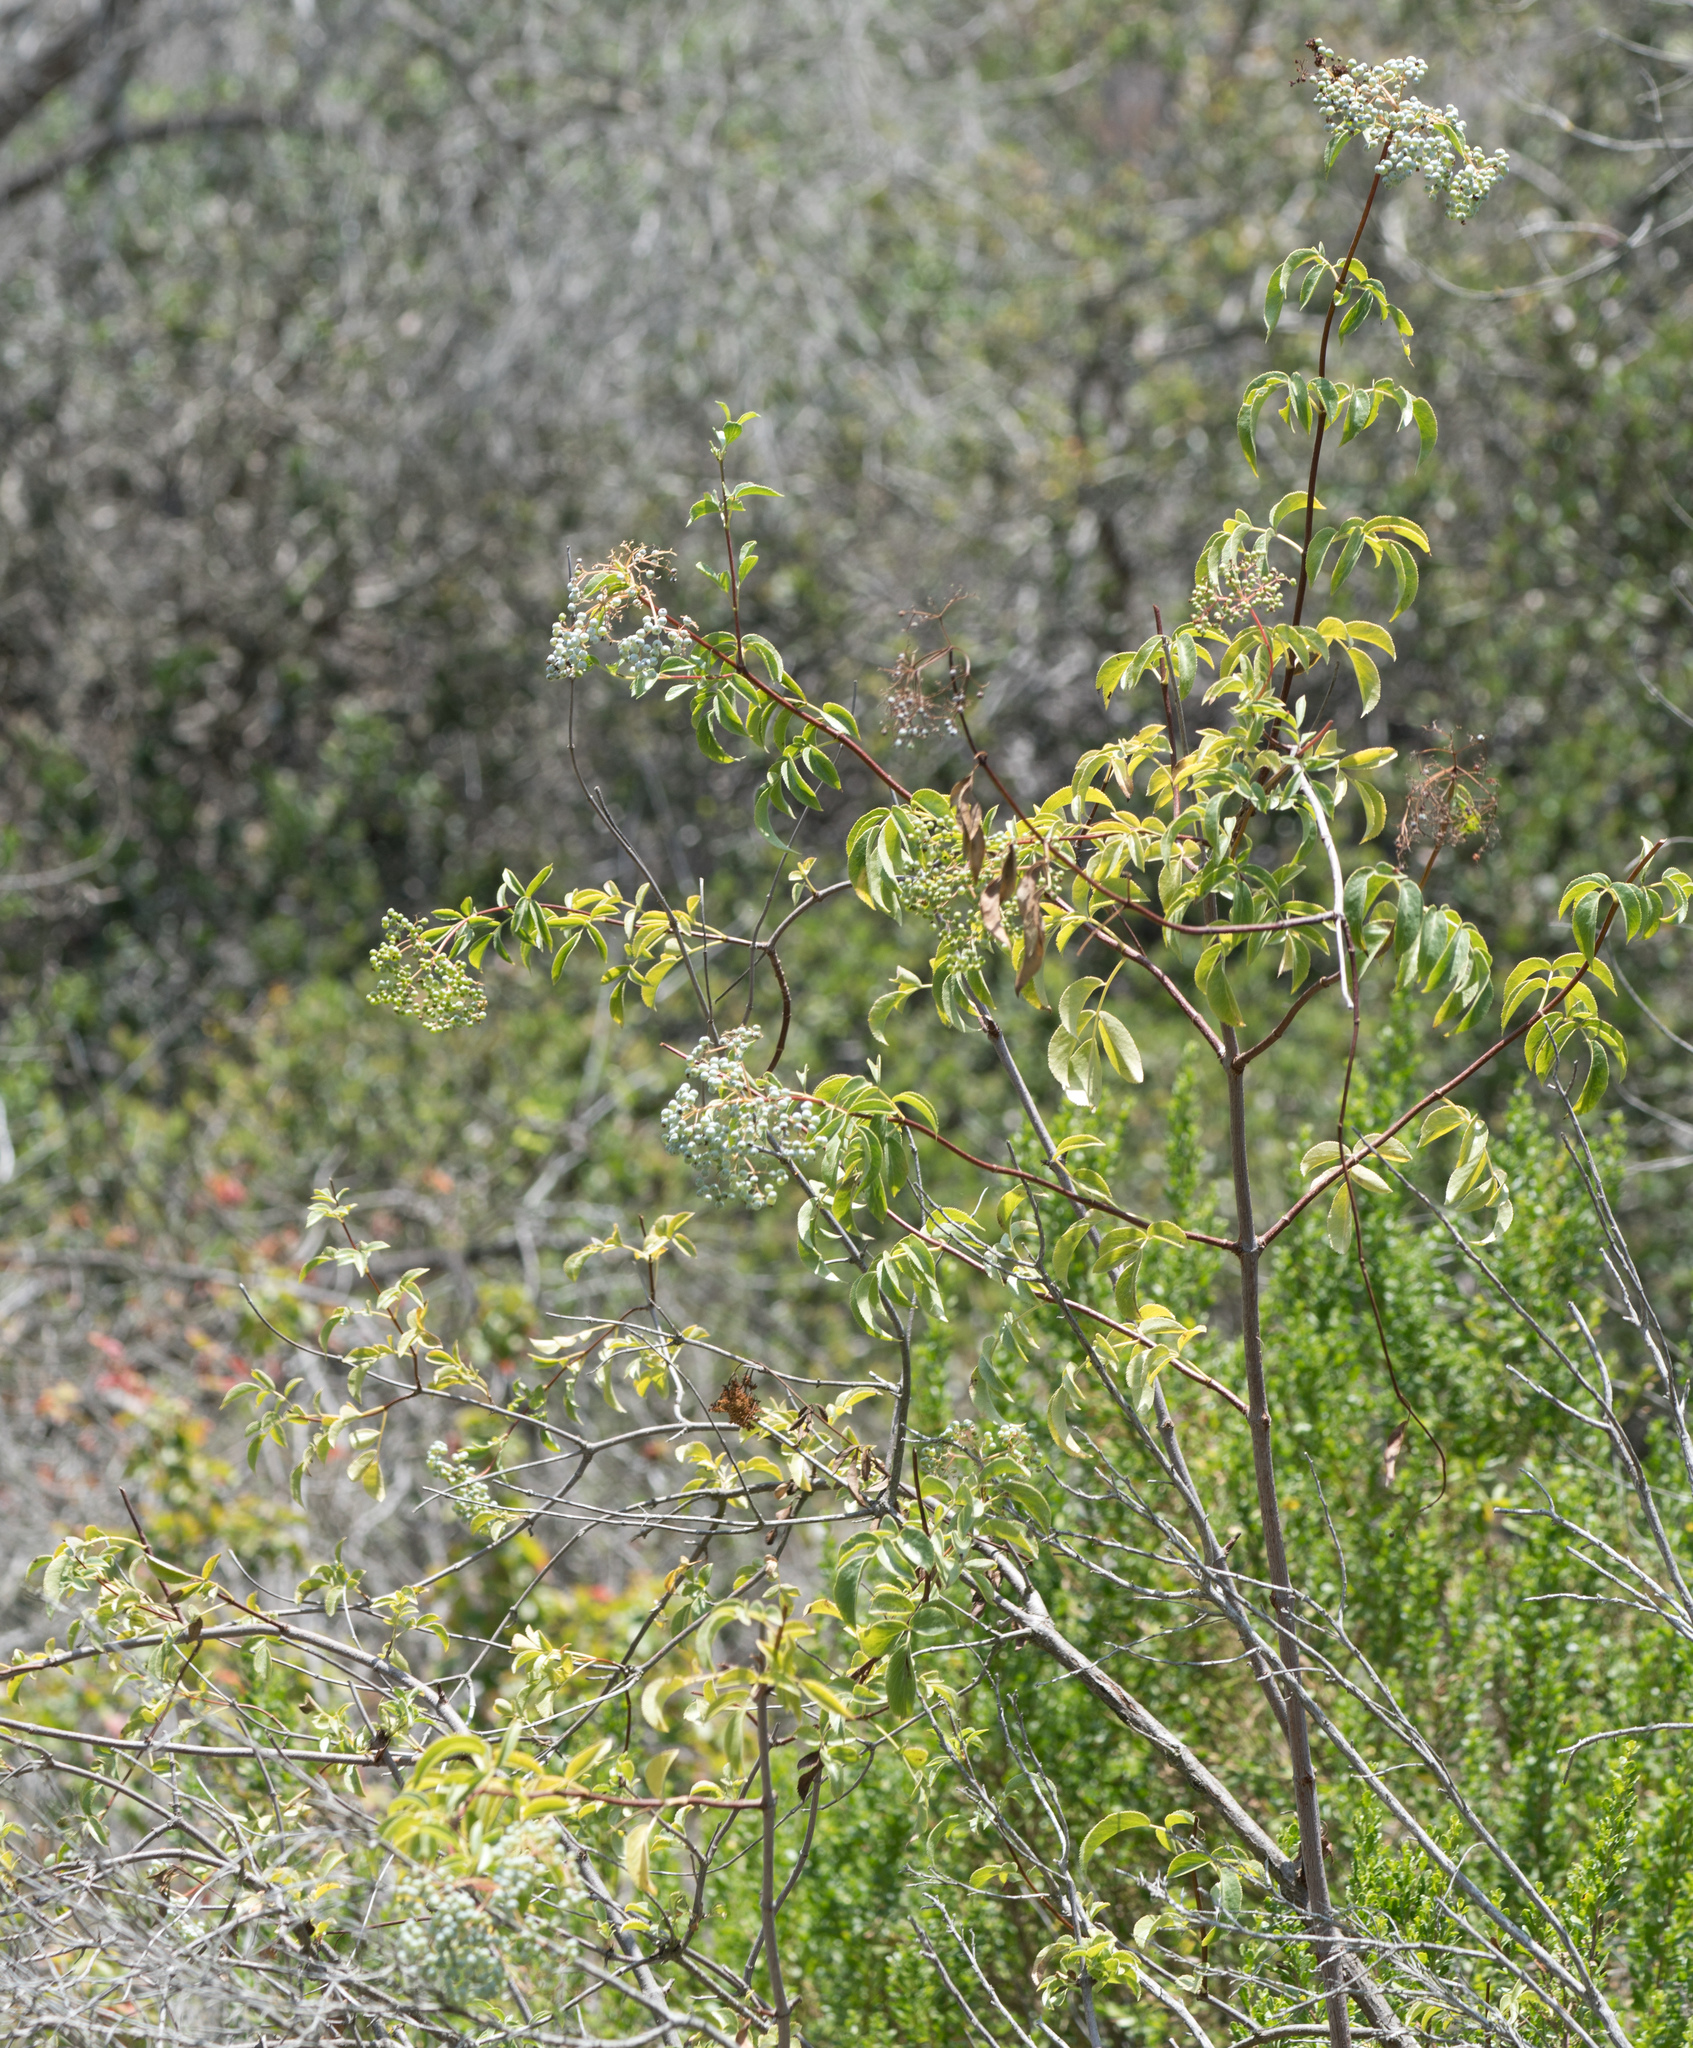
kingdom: Plantae
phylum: Tracheophyta
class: Magnoliopsida
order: Dipsacales
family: Viburnaceae
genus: Sambucus
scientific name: Sambucus cerulea
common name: Blue elder
